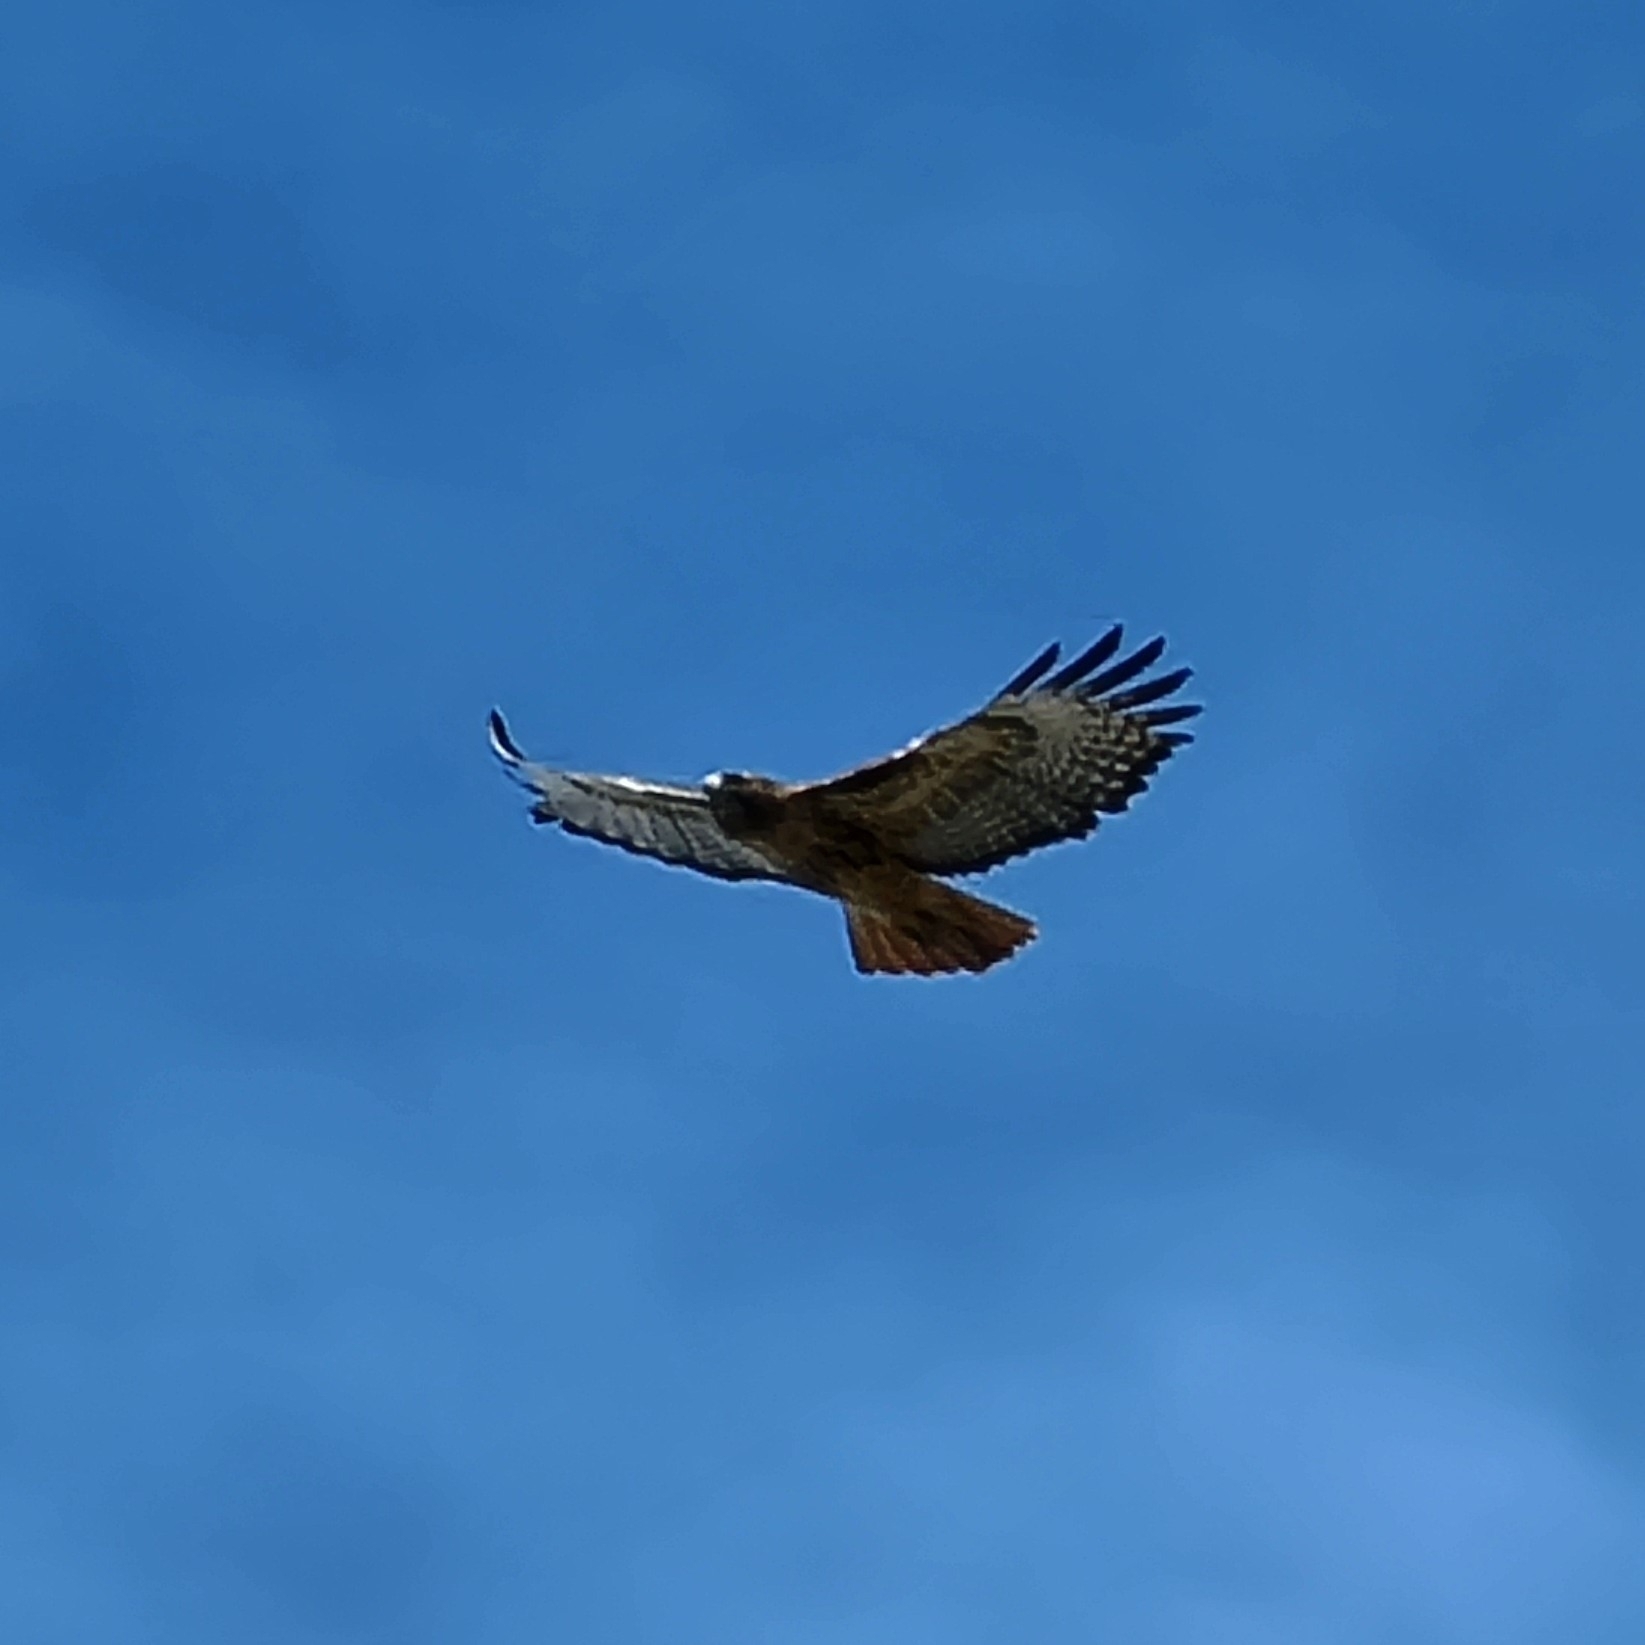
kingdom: Animalia
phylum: Chordata
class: Aves
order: Accipitriformes
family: Accipitridae
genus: Buteo
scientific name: Buteo jamaicensis
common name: Red-tailed hawk
